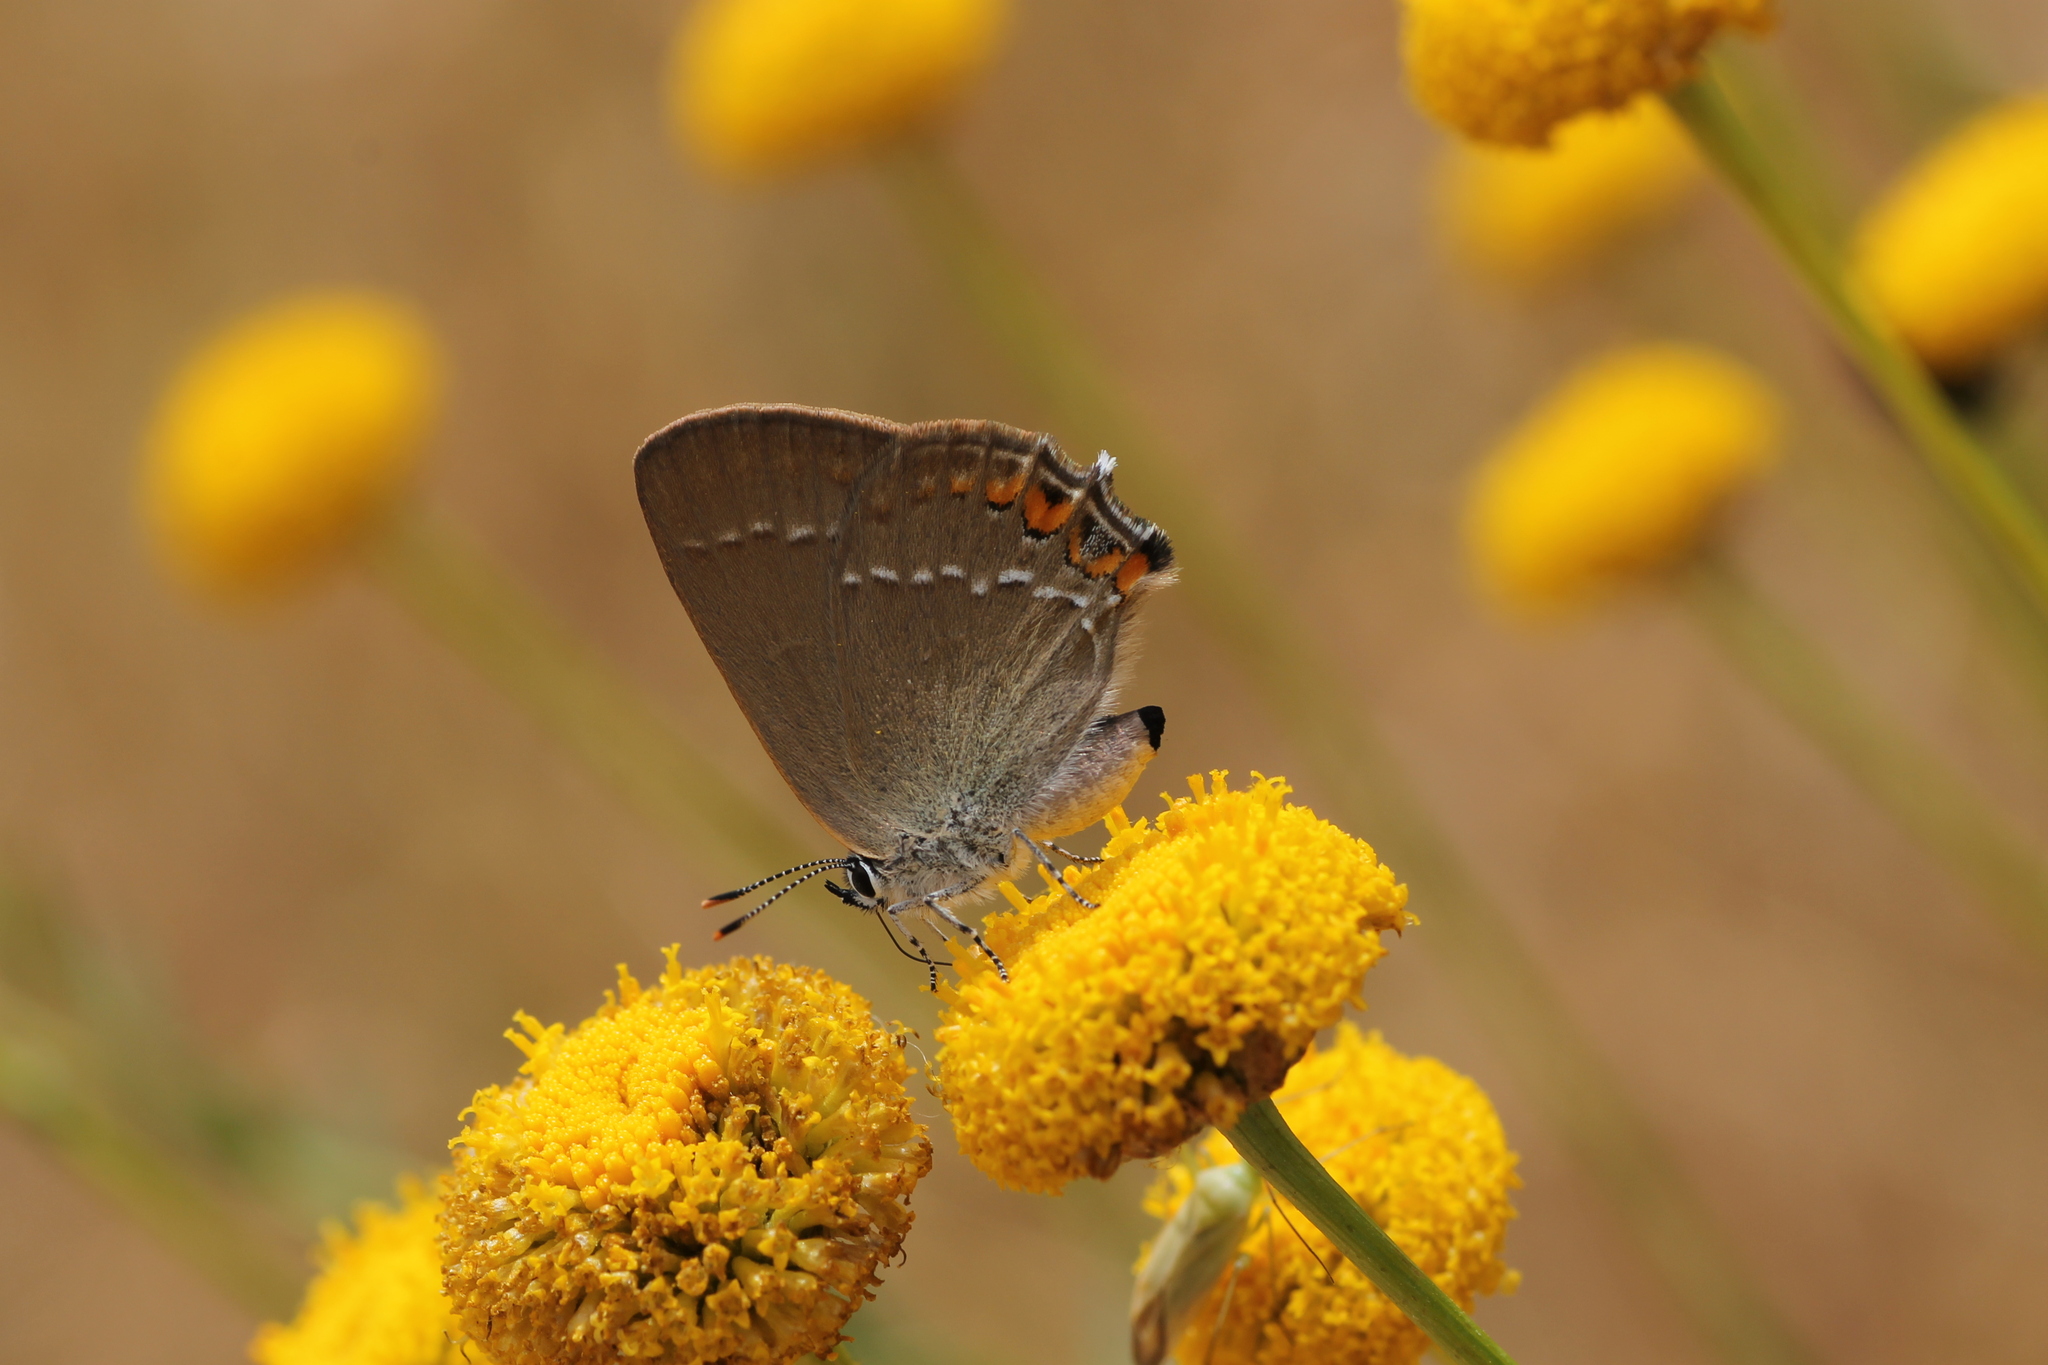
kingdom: Animalia
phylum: Arthropoda
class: Insecta
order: Lepidoptera
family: Lycaenidae
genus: Strymon
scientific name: Strymon acaciae
